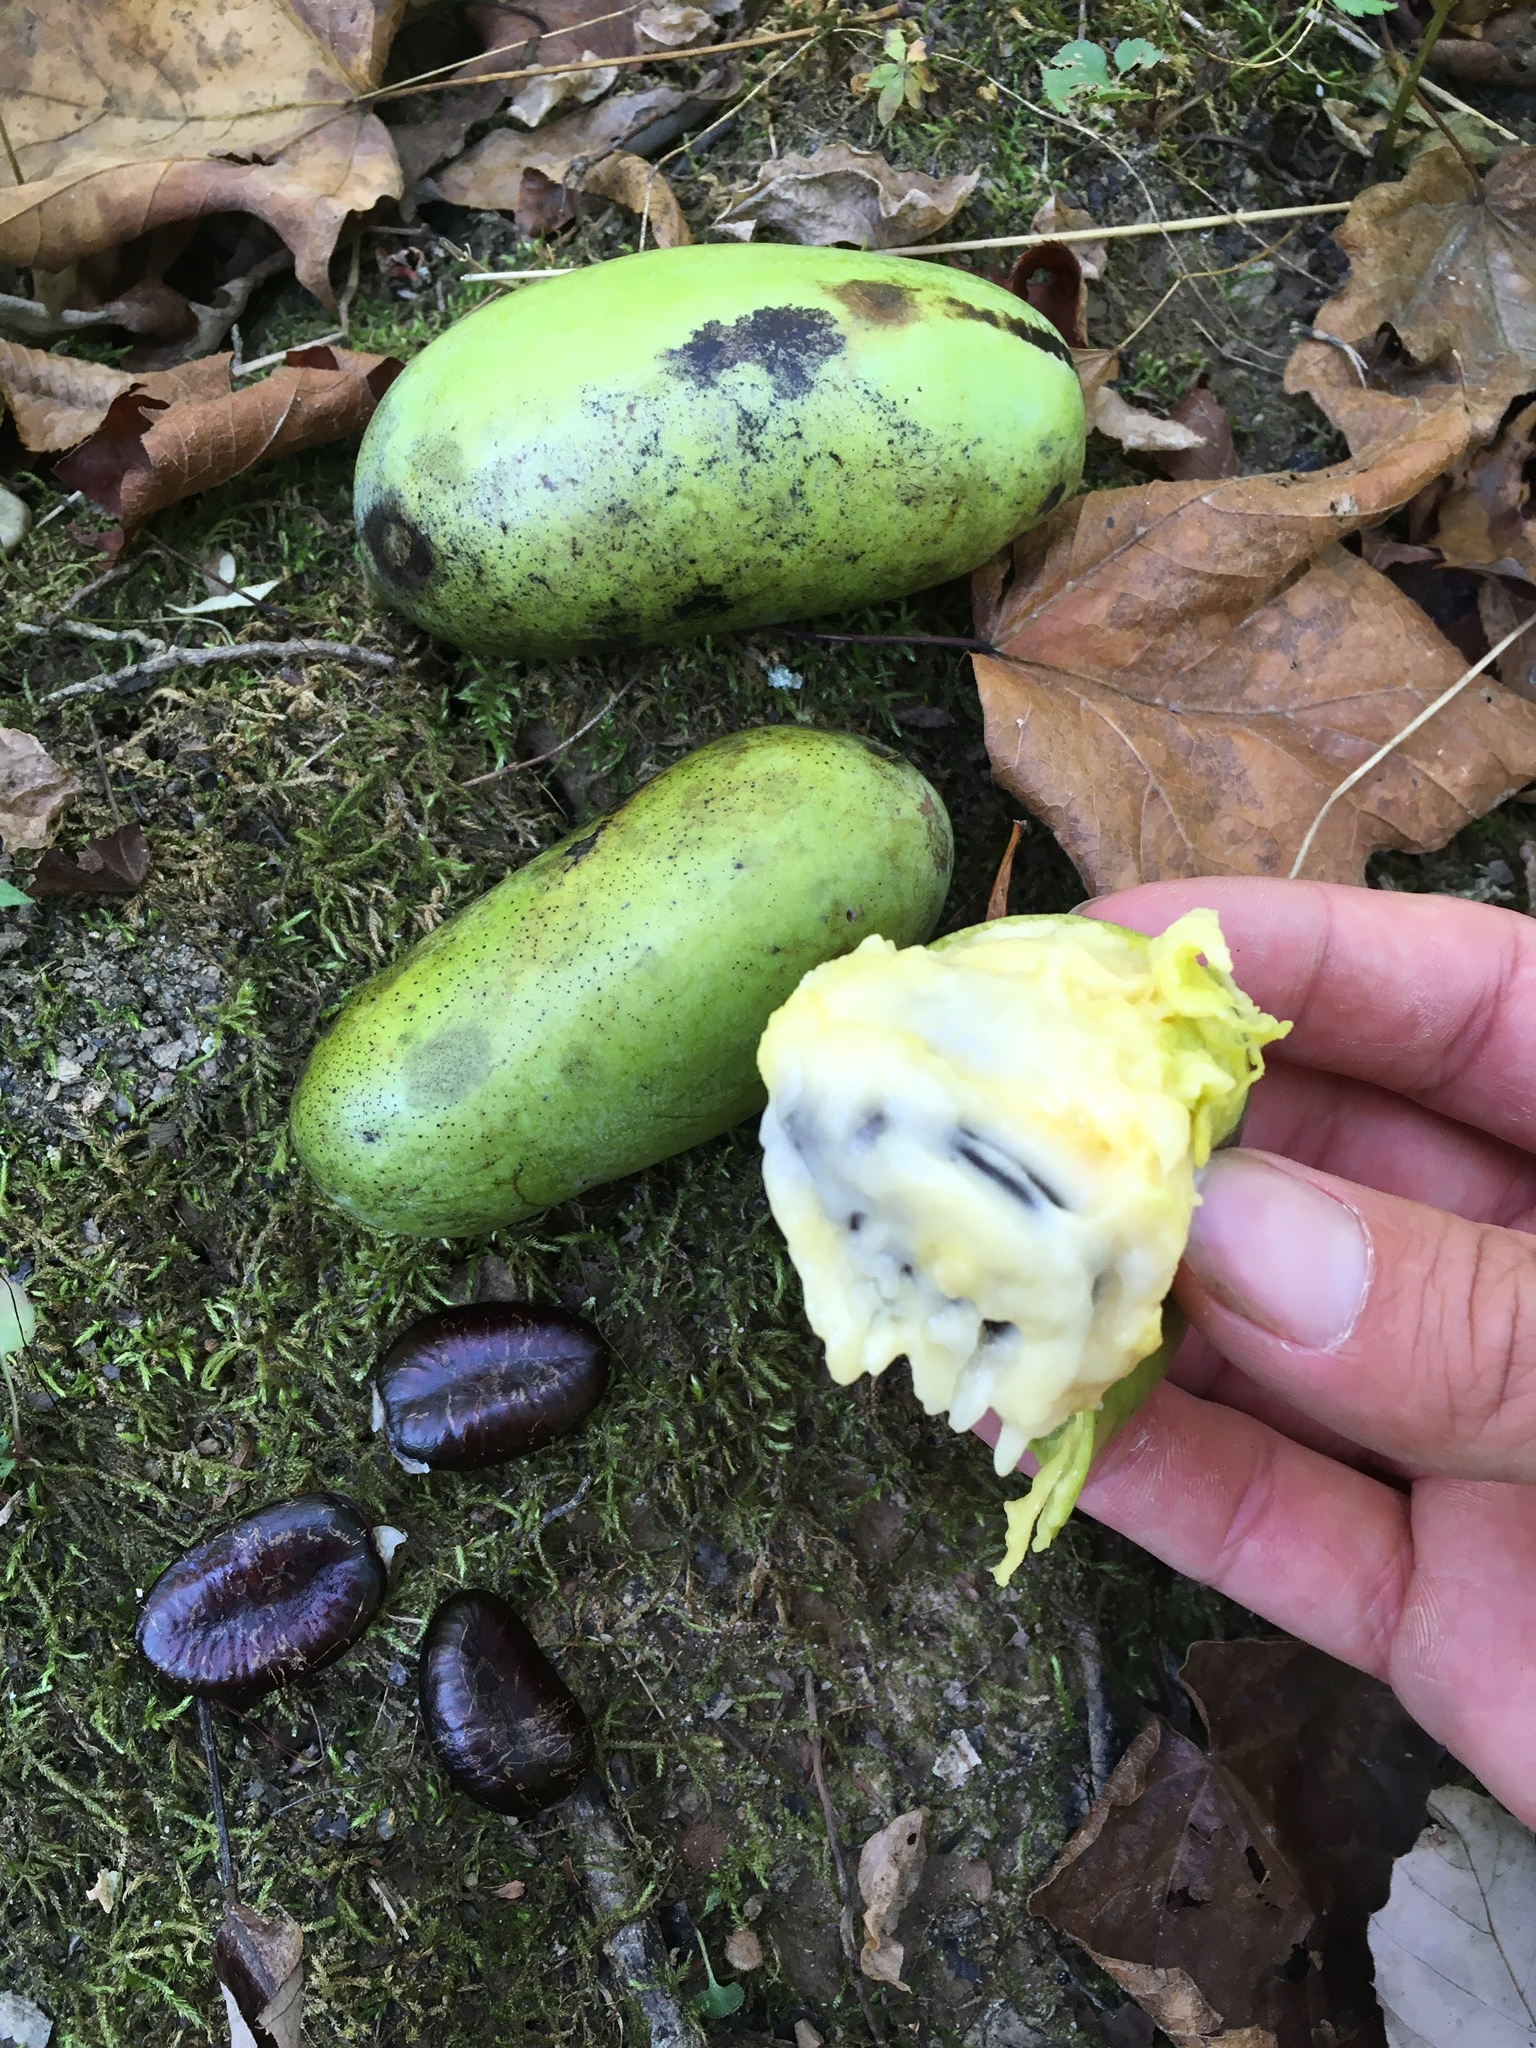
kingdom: Plantae
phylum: Tracheophyta
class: Magnoliopsida
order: Magnoliales
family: Annonaceae
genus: Asimina
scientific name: Asimina triloba
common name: Dog-banana
